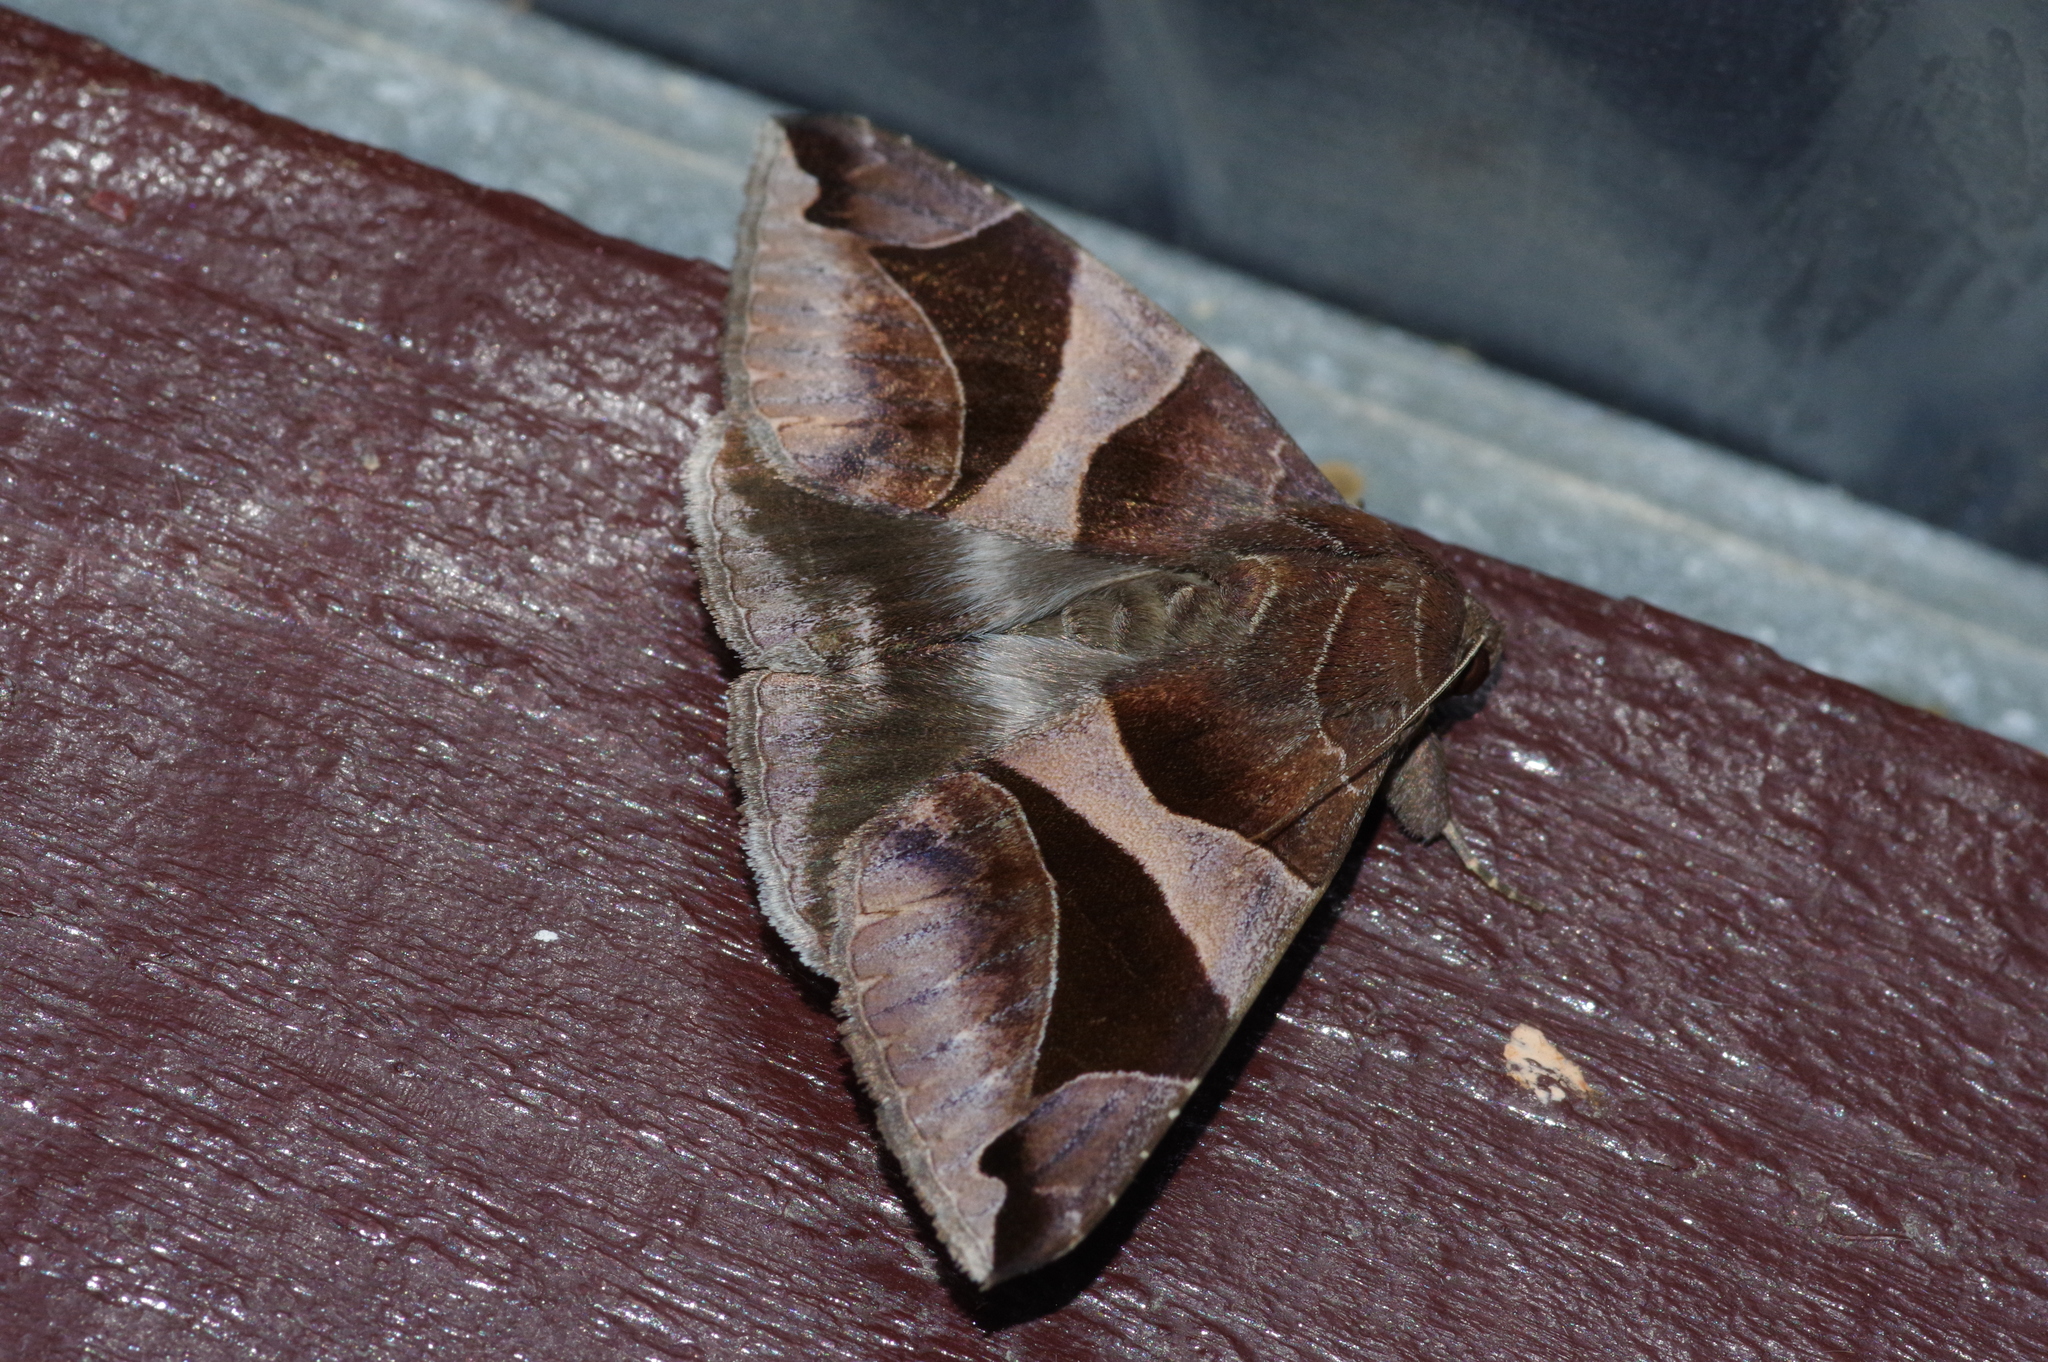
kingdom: Animalia
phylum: Arthropoda
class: Insecta
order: Lepidoptera
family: Erebidae
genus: Bastilla
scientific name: Bastilla arcuata
